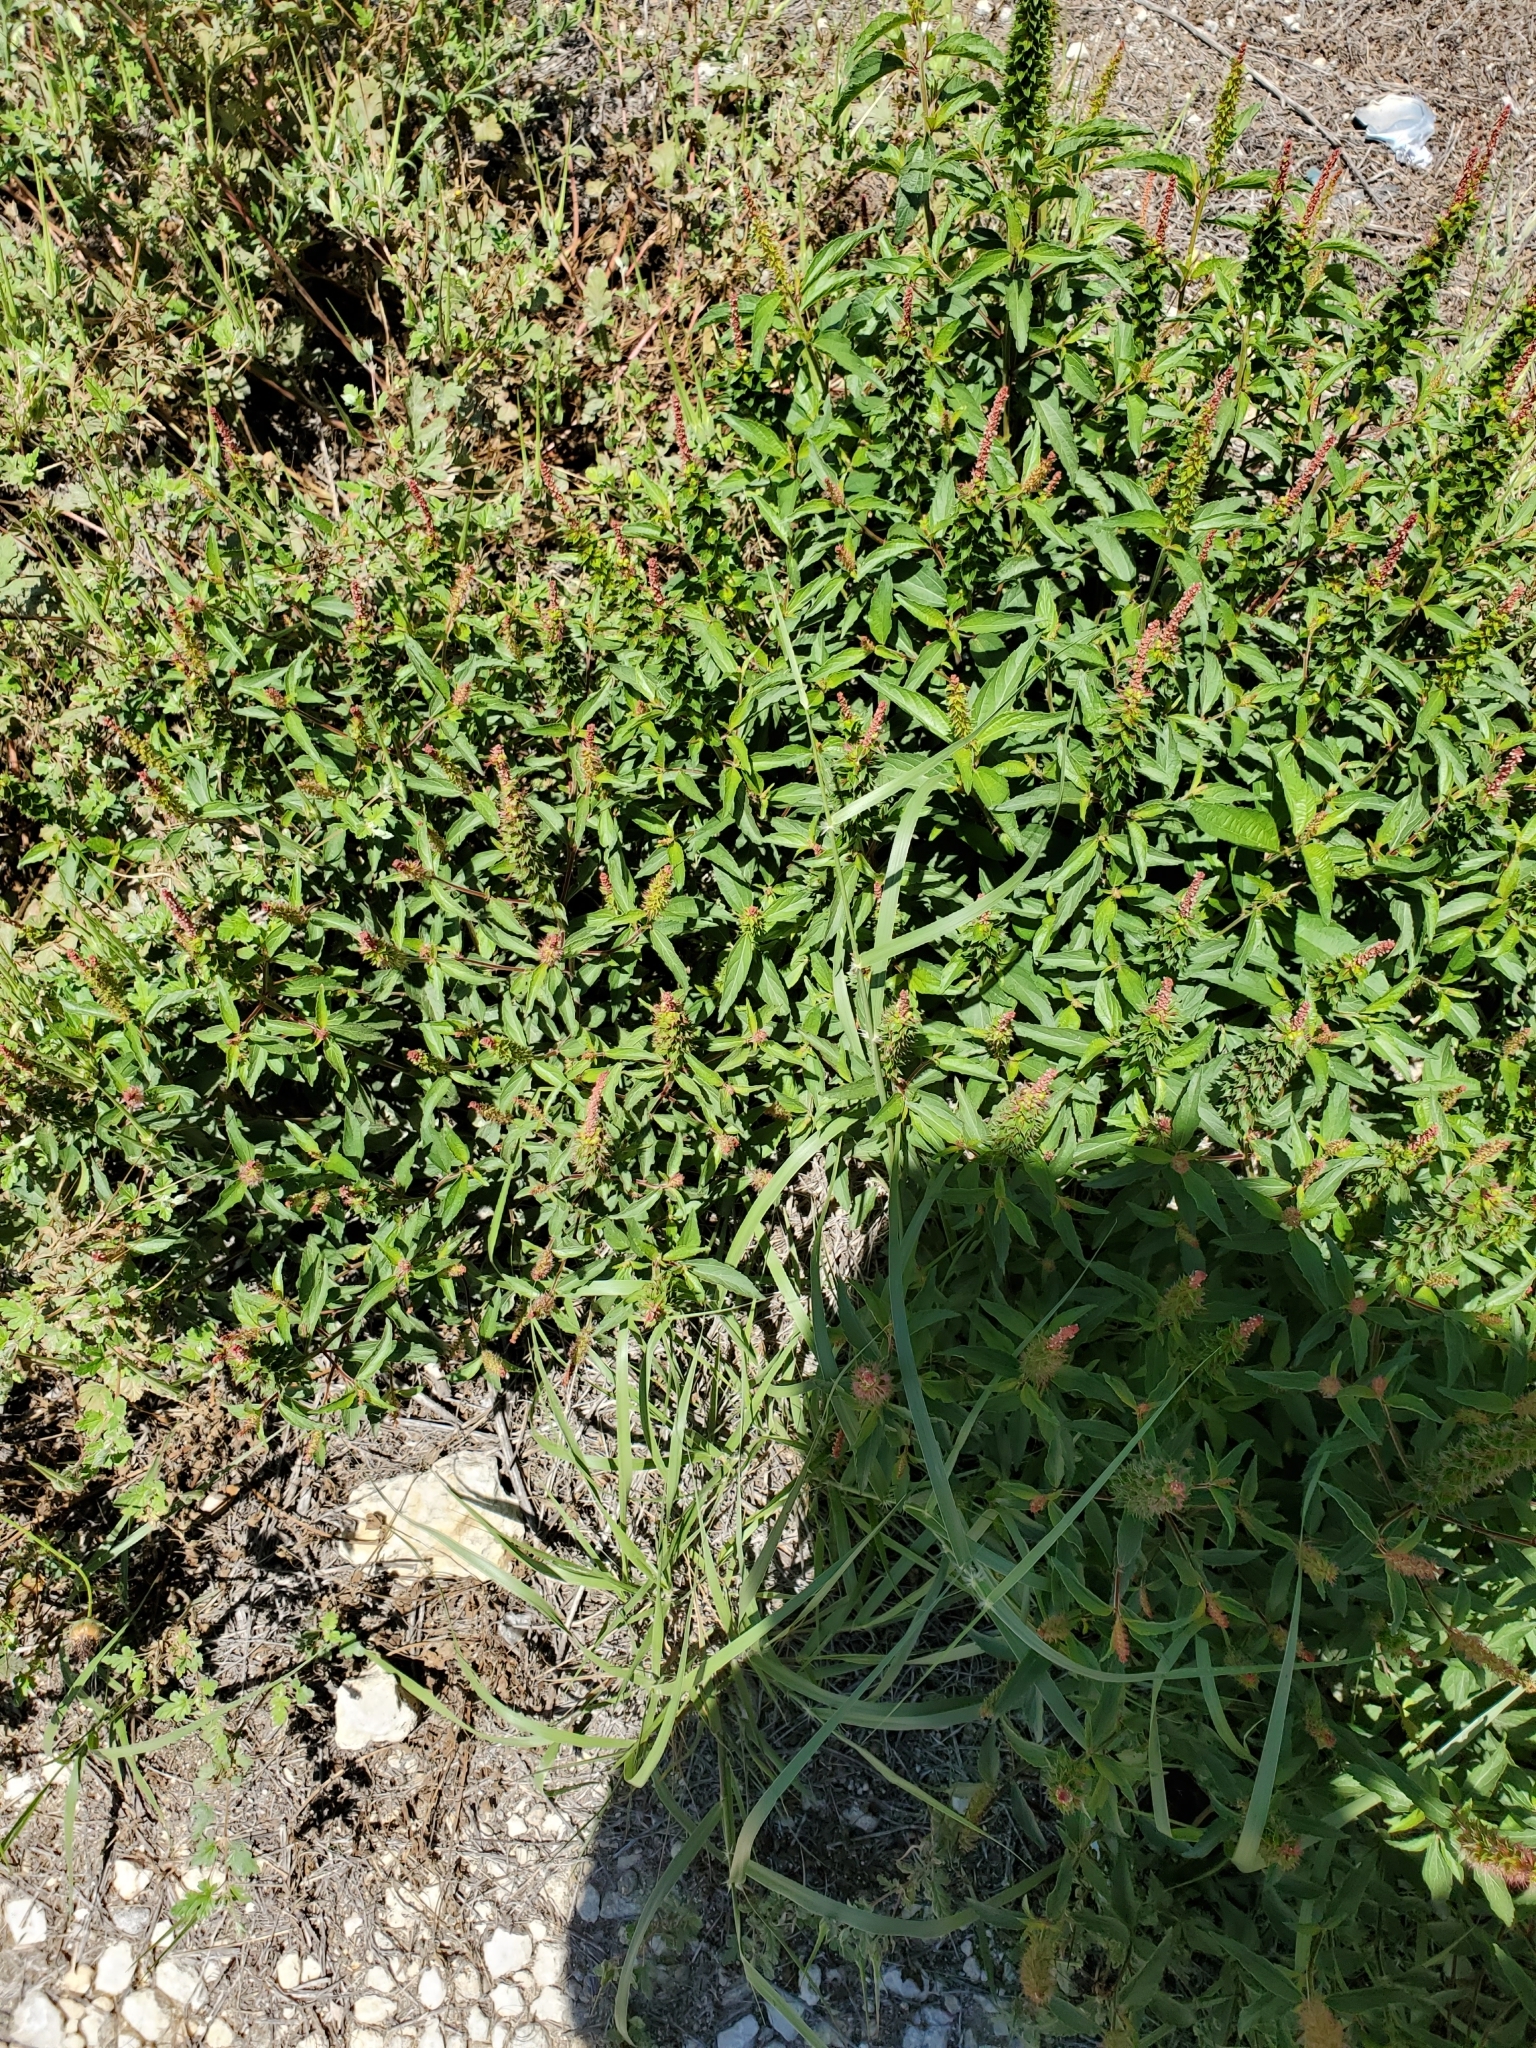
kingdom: Plantae
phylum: Tracheophyta
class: Magnoliopsida
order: Malpighiales
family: Euphorbiaceae
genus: Acalypha
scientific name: Acalypha phleoides
